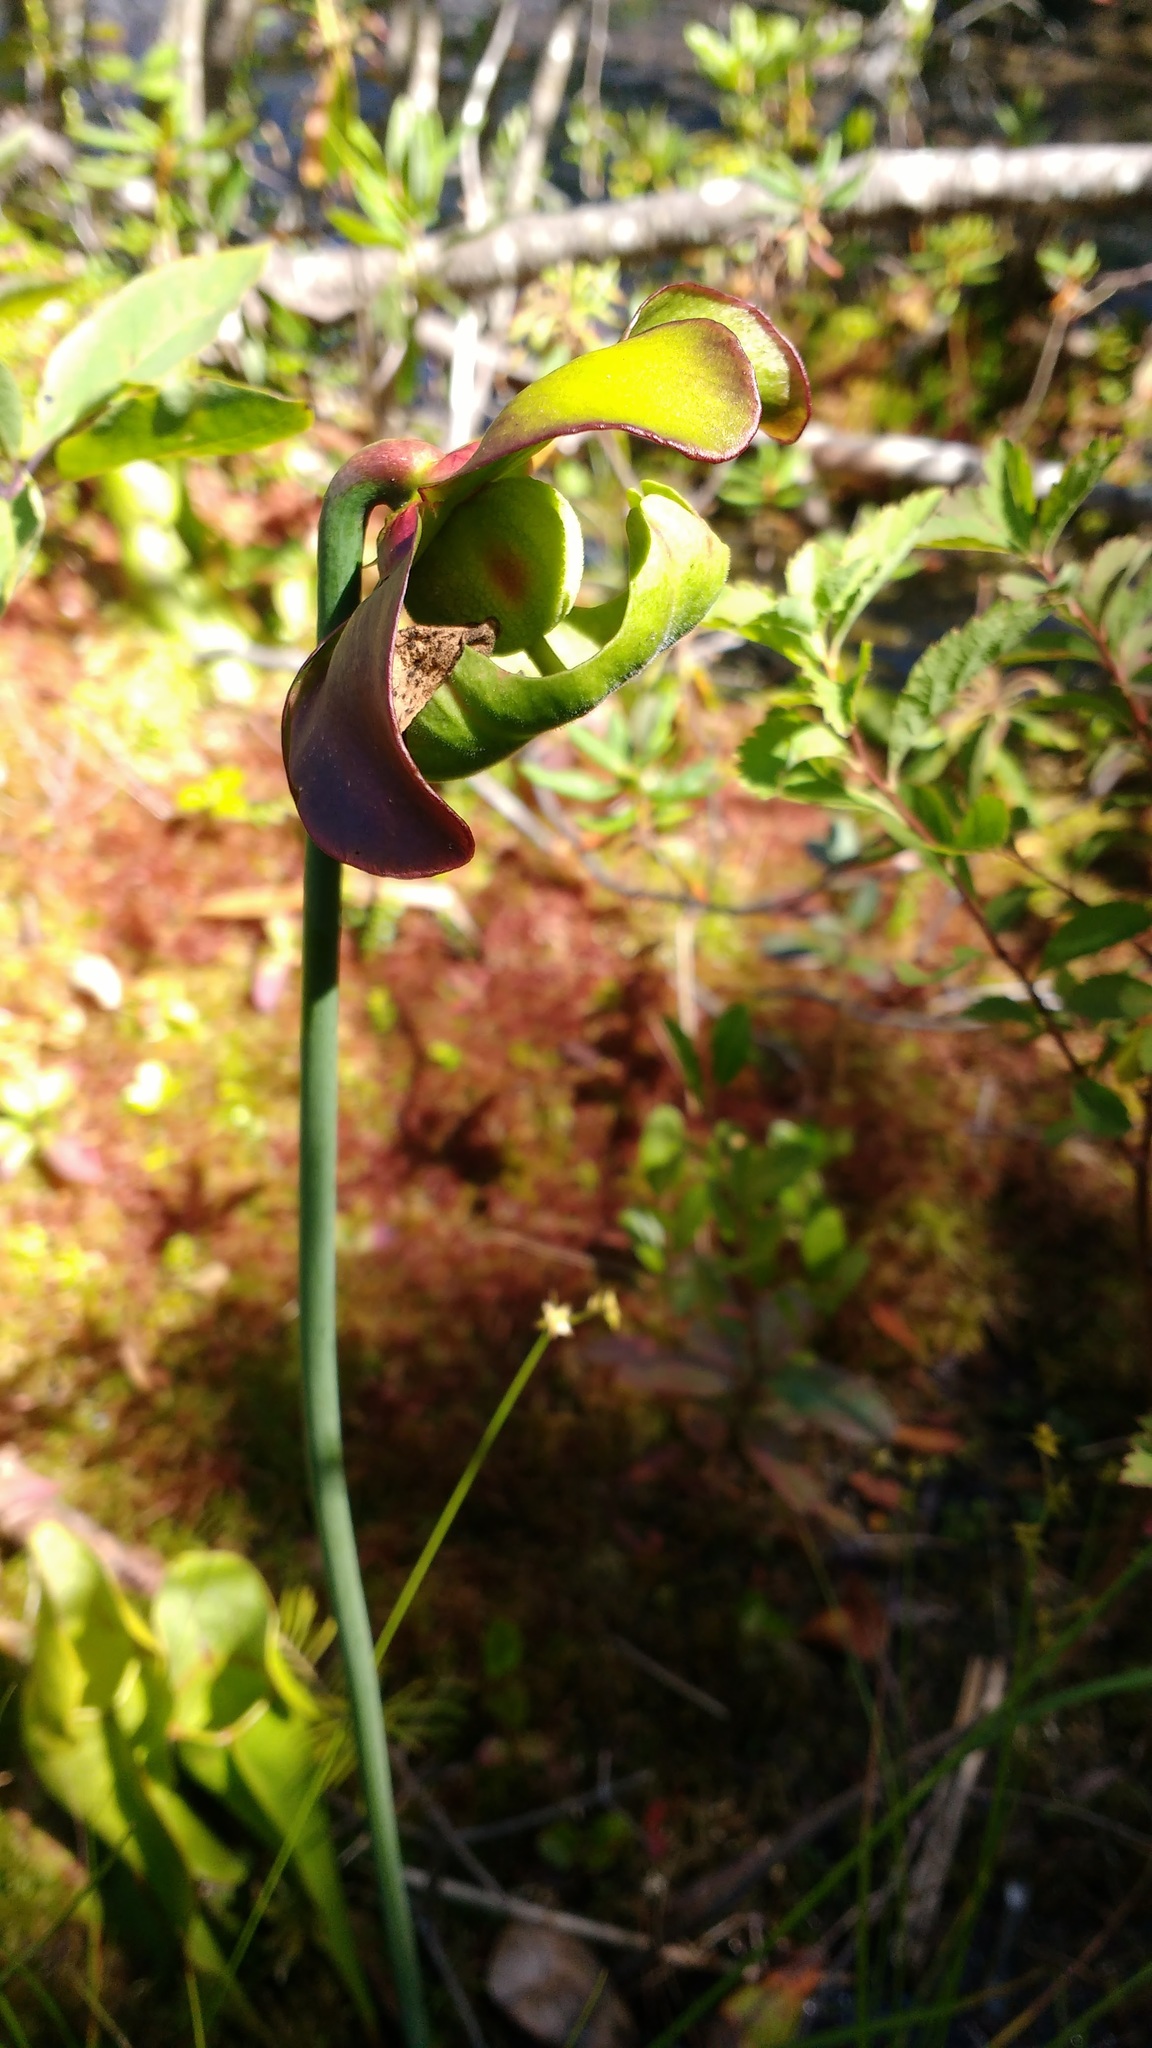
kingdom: Plantae
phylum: Tracheophyta
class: Magnoliopsida
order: Ericales
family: Sarraceniaceae
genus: Sarracenia
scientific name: Sarracenia purpurea
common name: Pitcherplant
